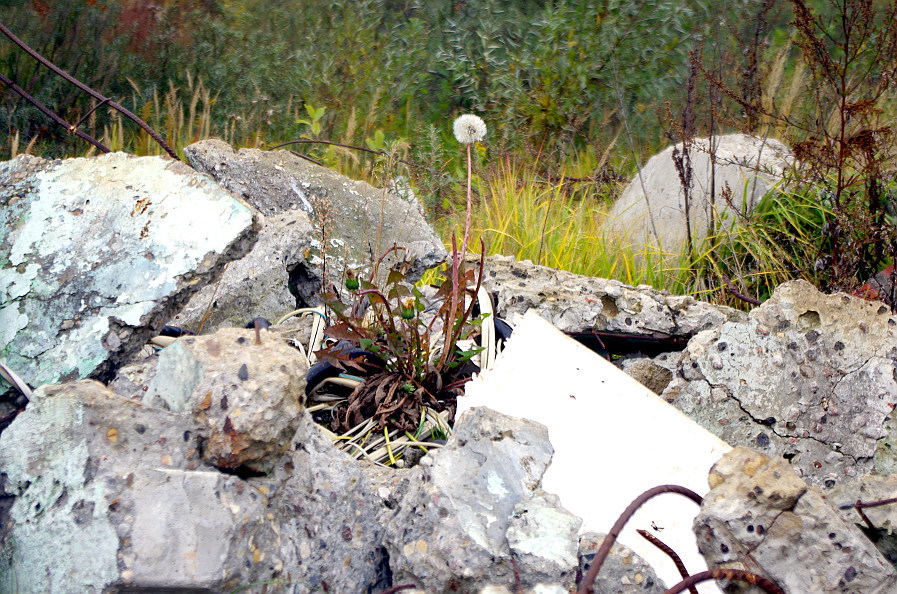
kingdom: Plantae
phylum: Tracheophyta
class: Magnoliopsida
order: Asterales
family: Asteraceae
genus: Taraxacum
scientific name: Taraxacum officinale
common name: Common dandelion
